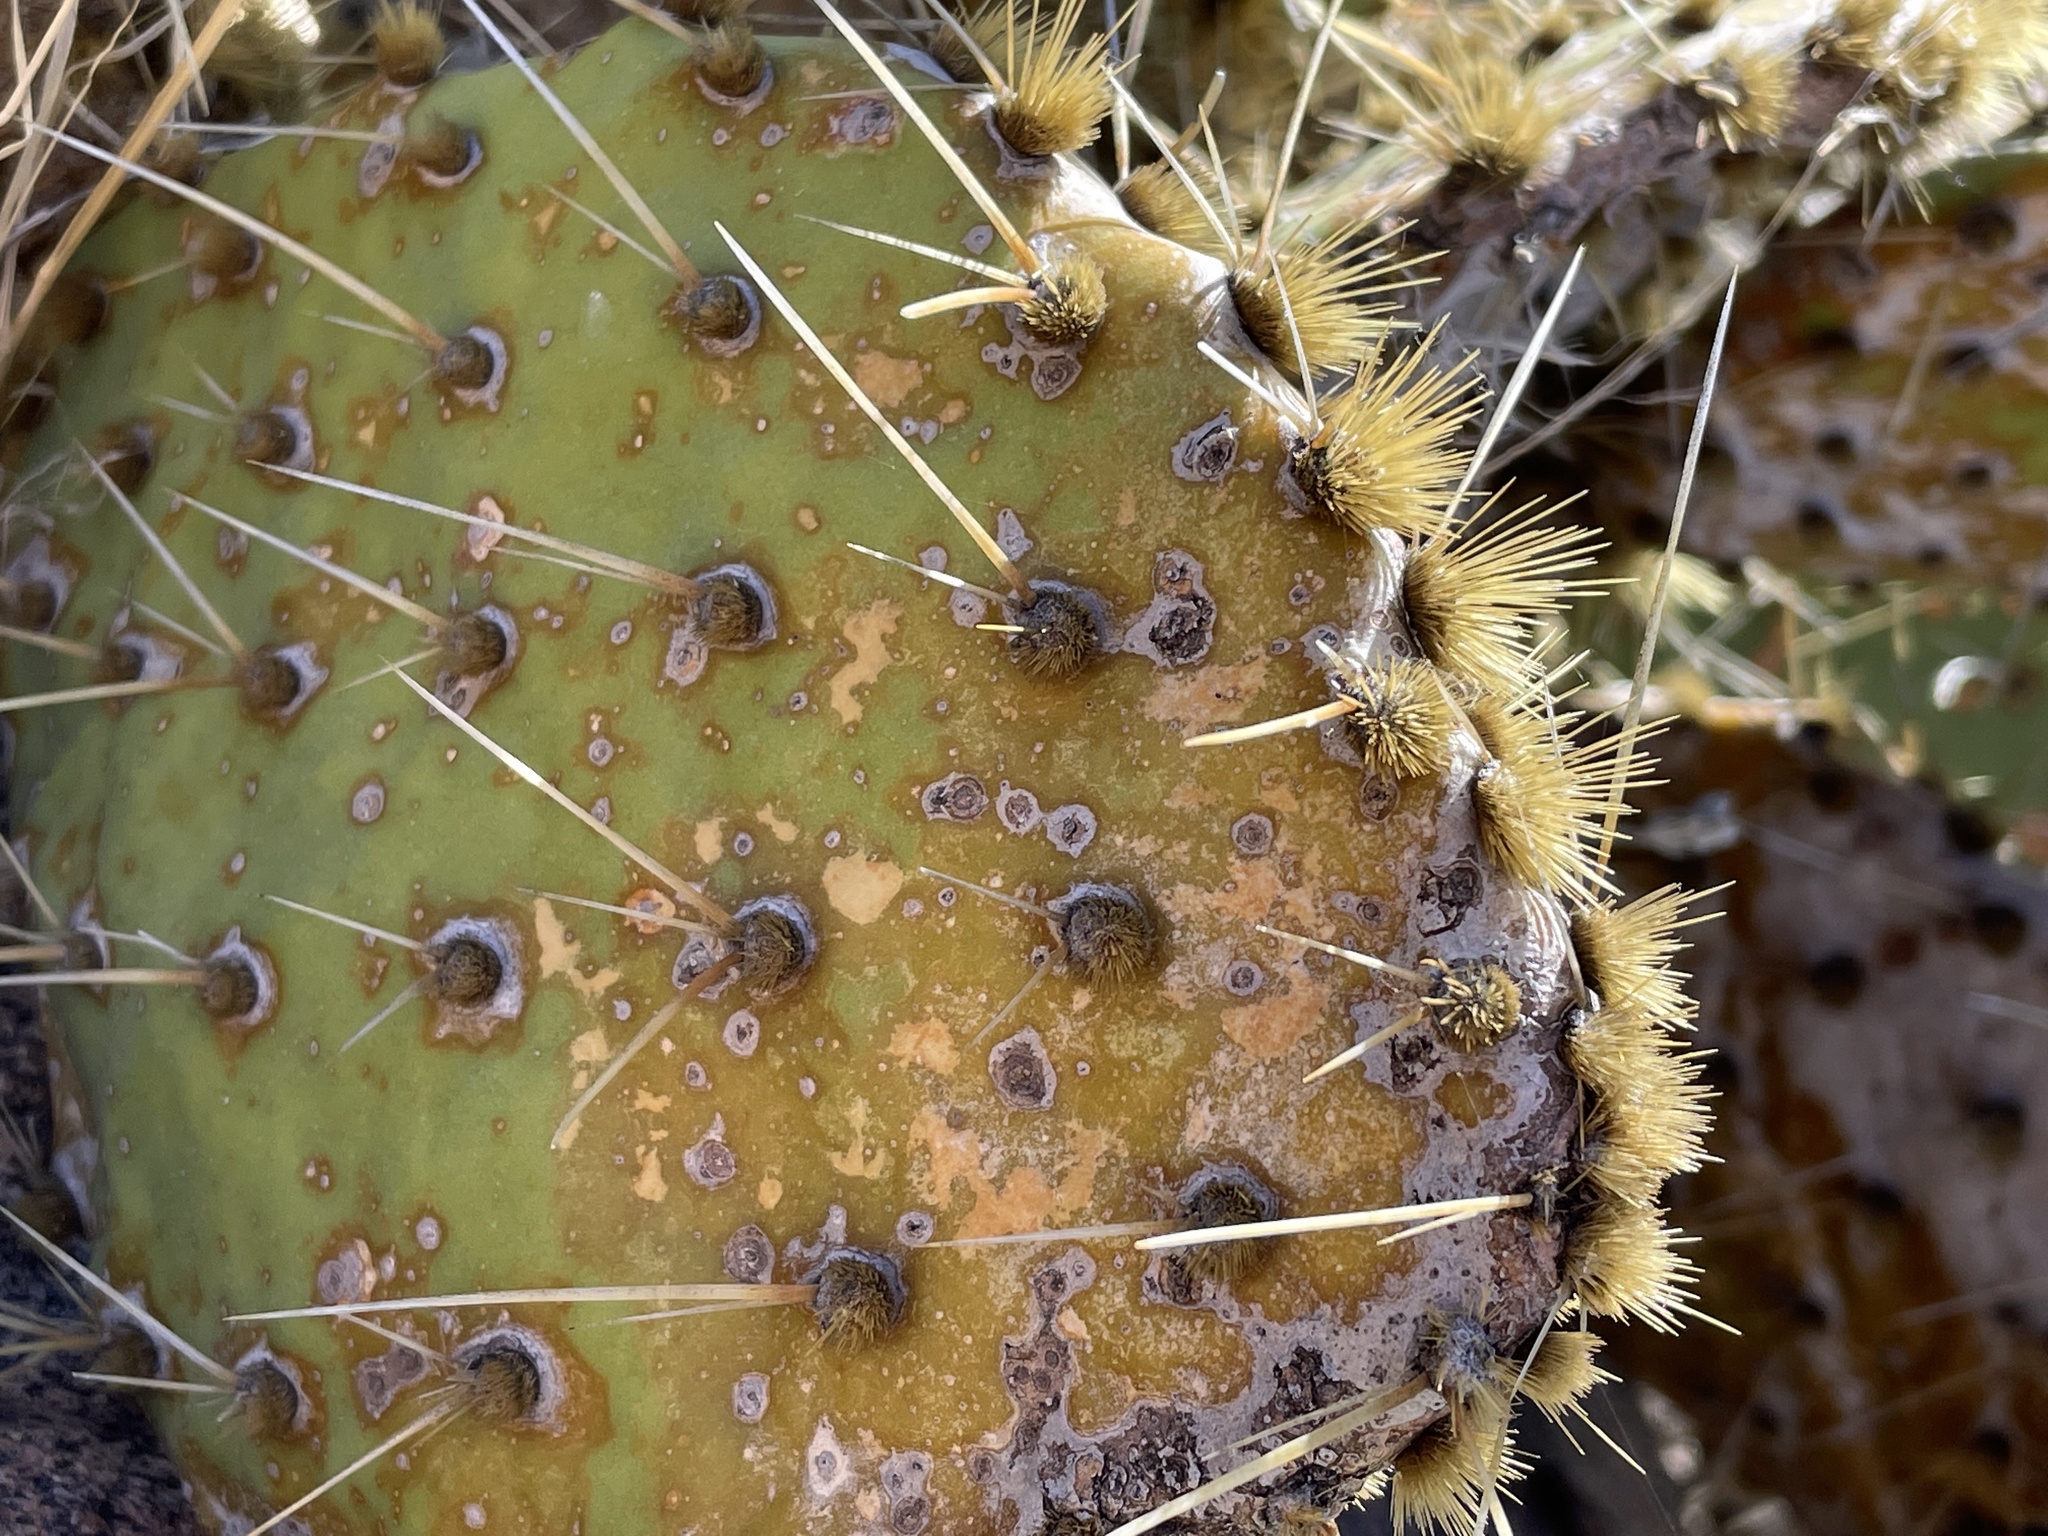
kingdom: Plantae
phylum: Tracheophyta
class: Magnoliopsida
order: Caryophyllales
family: Cactaceae
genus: Opuntia
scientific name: Opuntia phaeacantha
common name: New mexico prickly-pear
